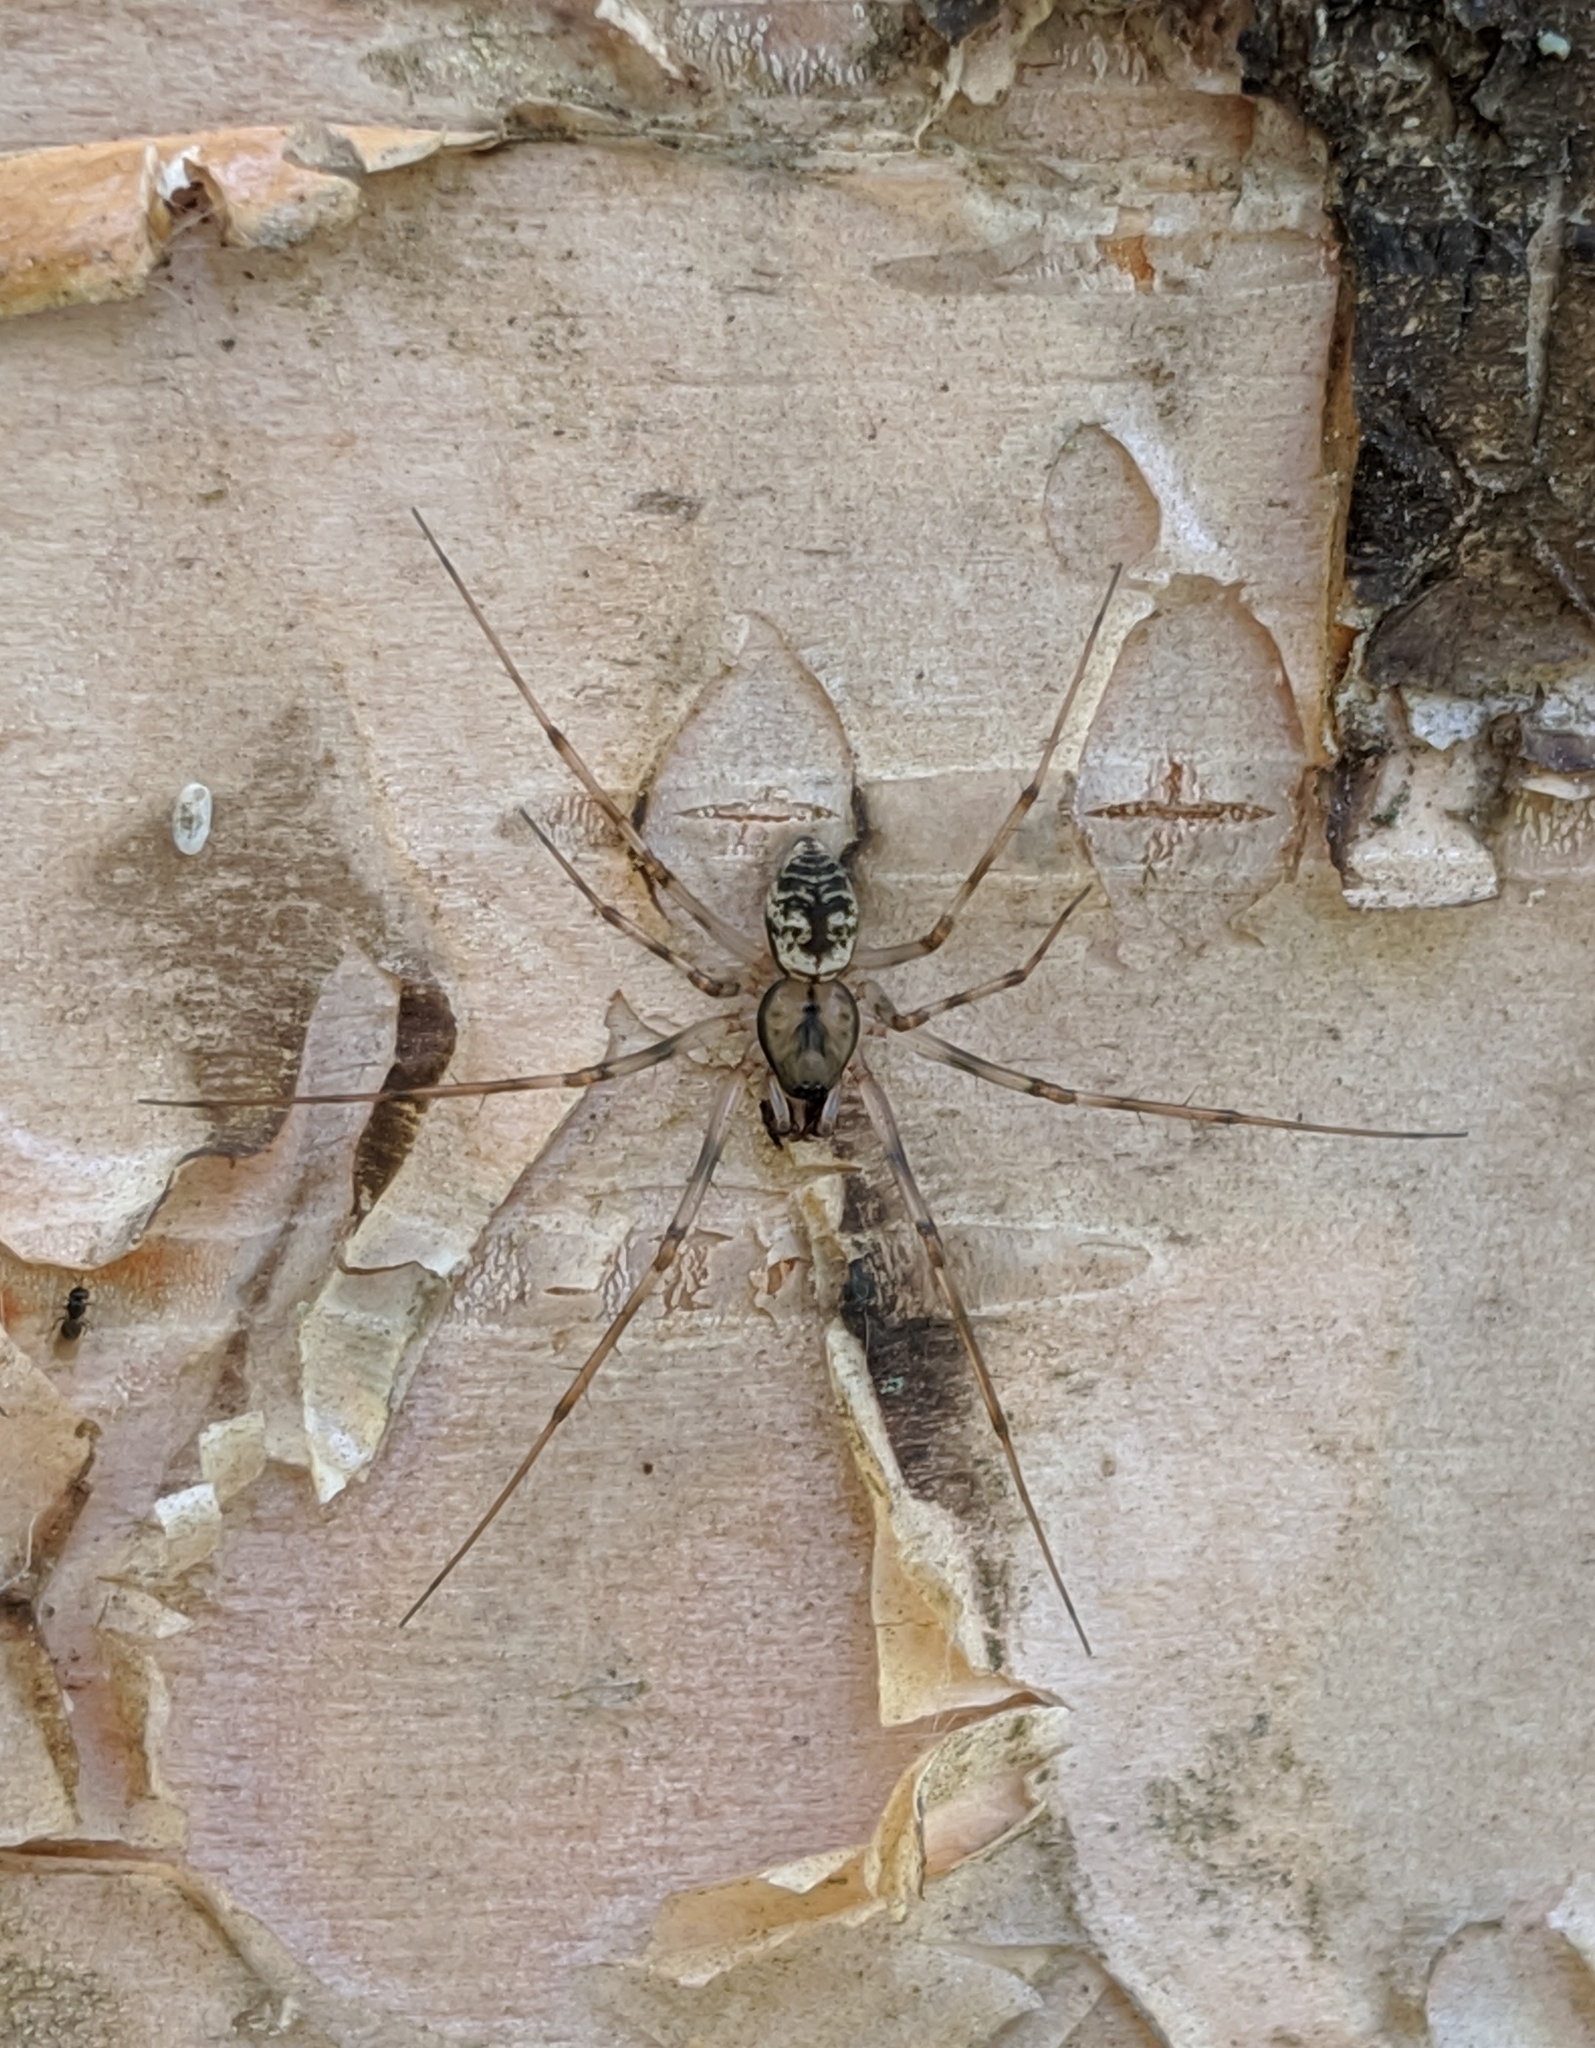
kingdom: Animalia
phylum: Arthropoda
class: Arachnida
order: Araneae
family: Linyphiidae
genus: Drapetisca
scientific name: Drapetisca alteranda
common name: Northern long-toothed sheetweaver
